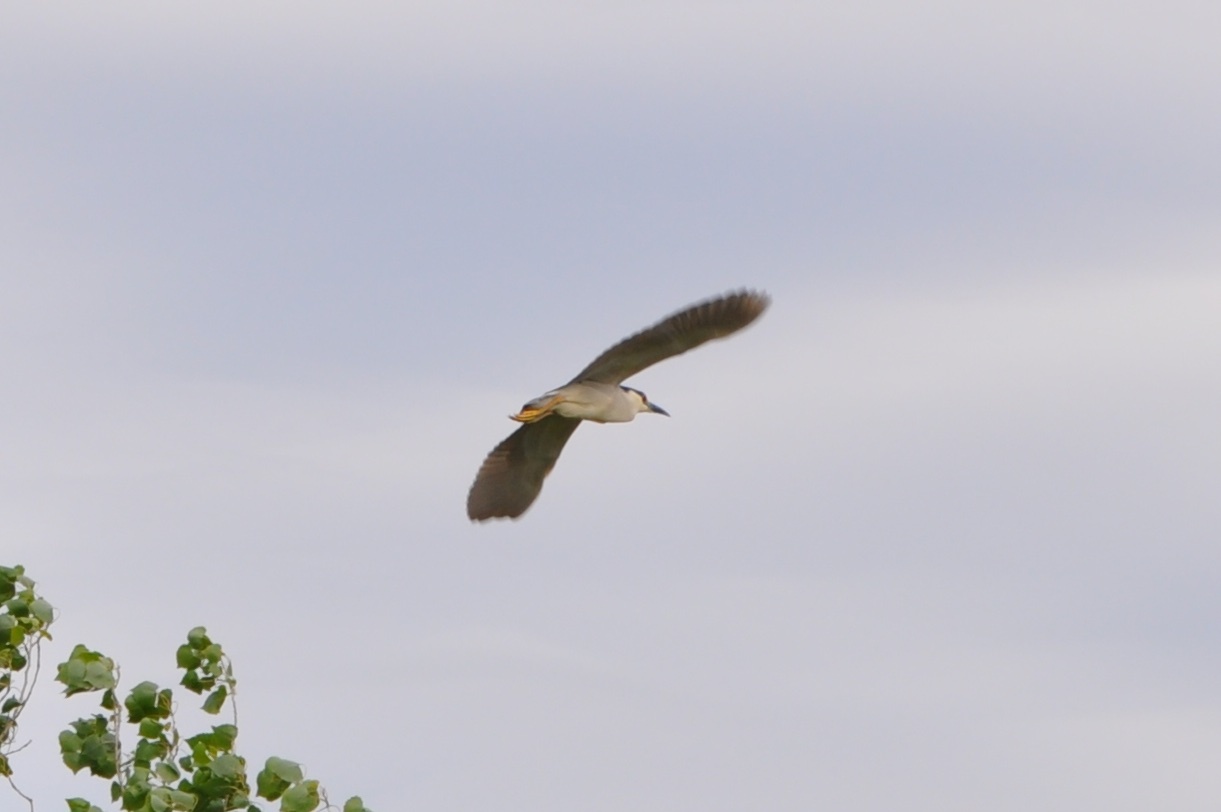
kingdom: Animalia
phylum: Chordata
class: Aves
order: Pelecaniformes
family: Ardeidae
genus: Nycticorax
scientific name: Nycticorax nycticorax
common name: Black-crowned night heron
